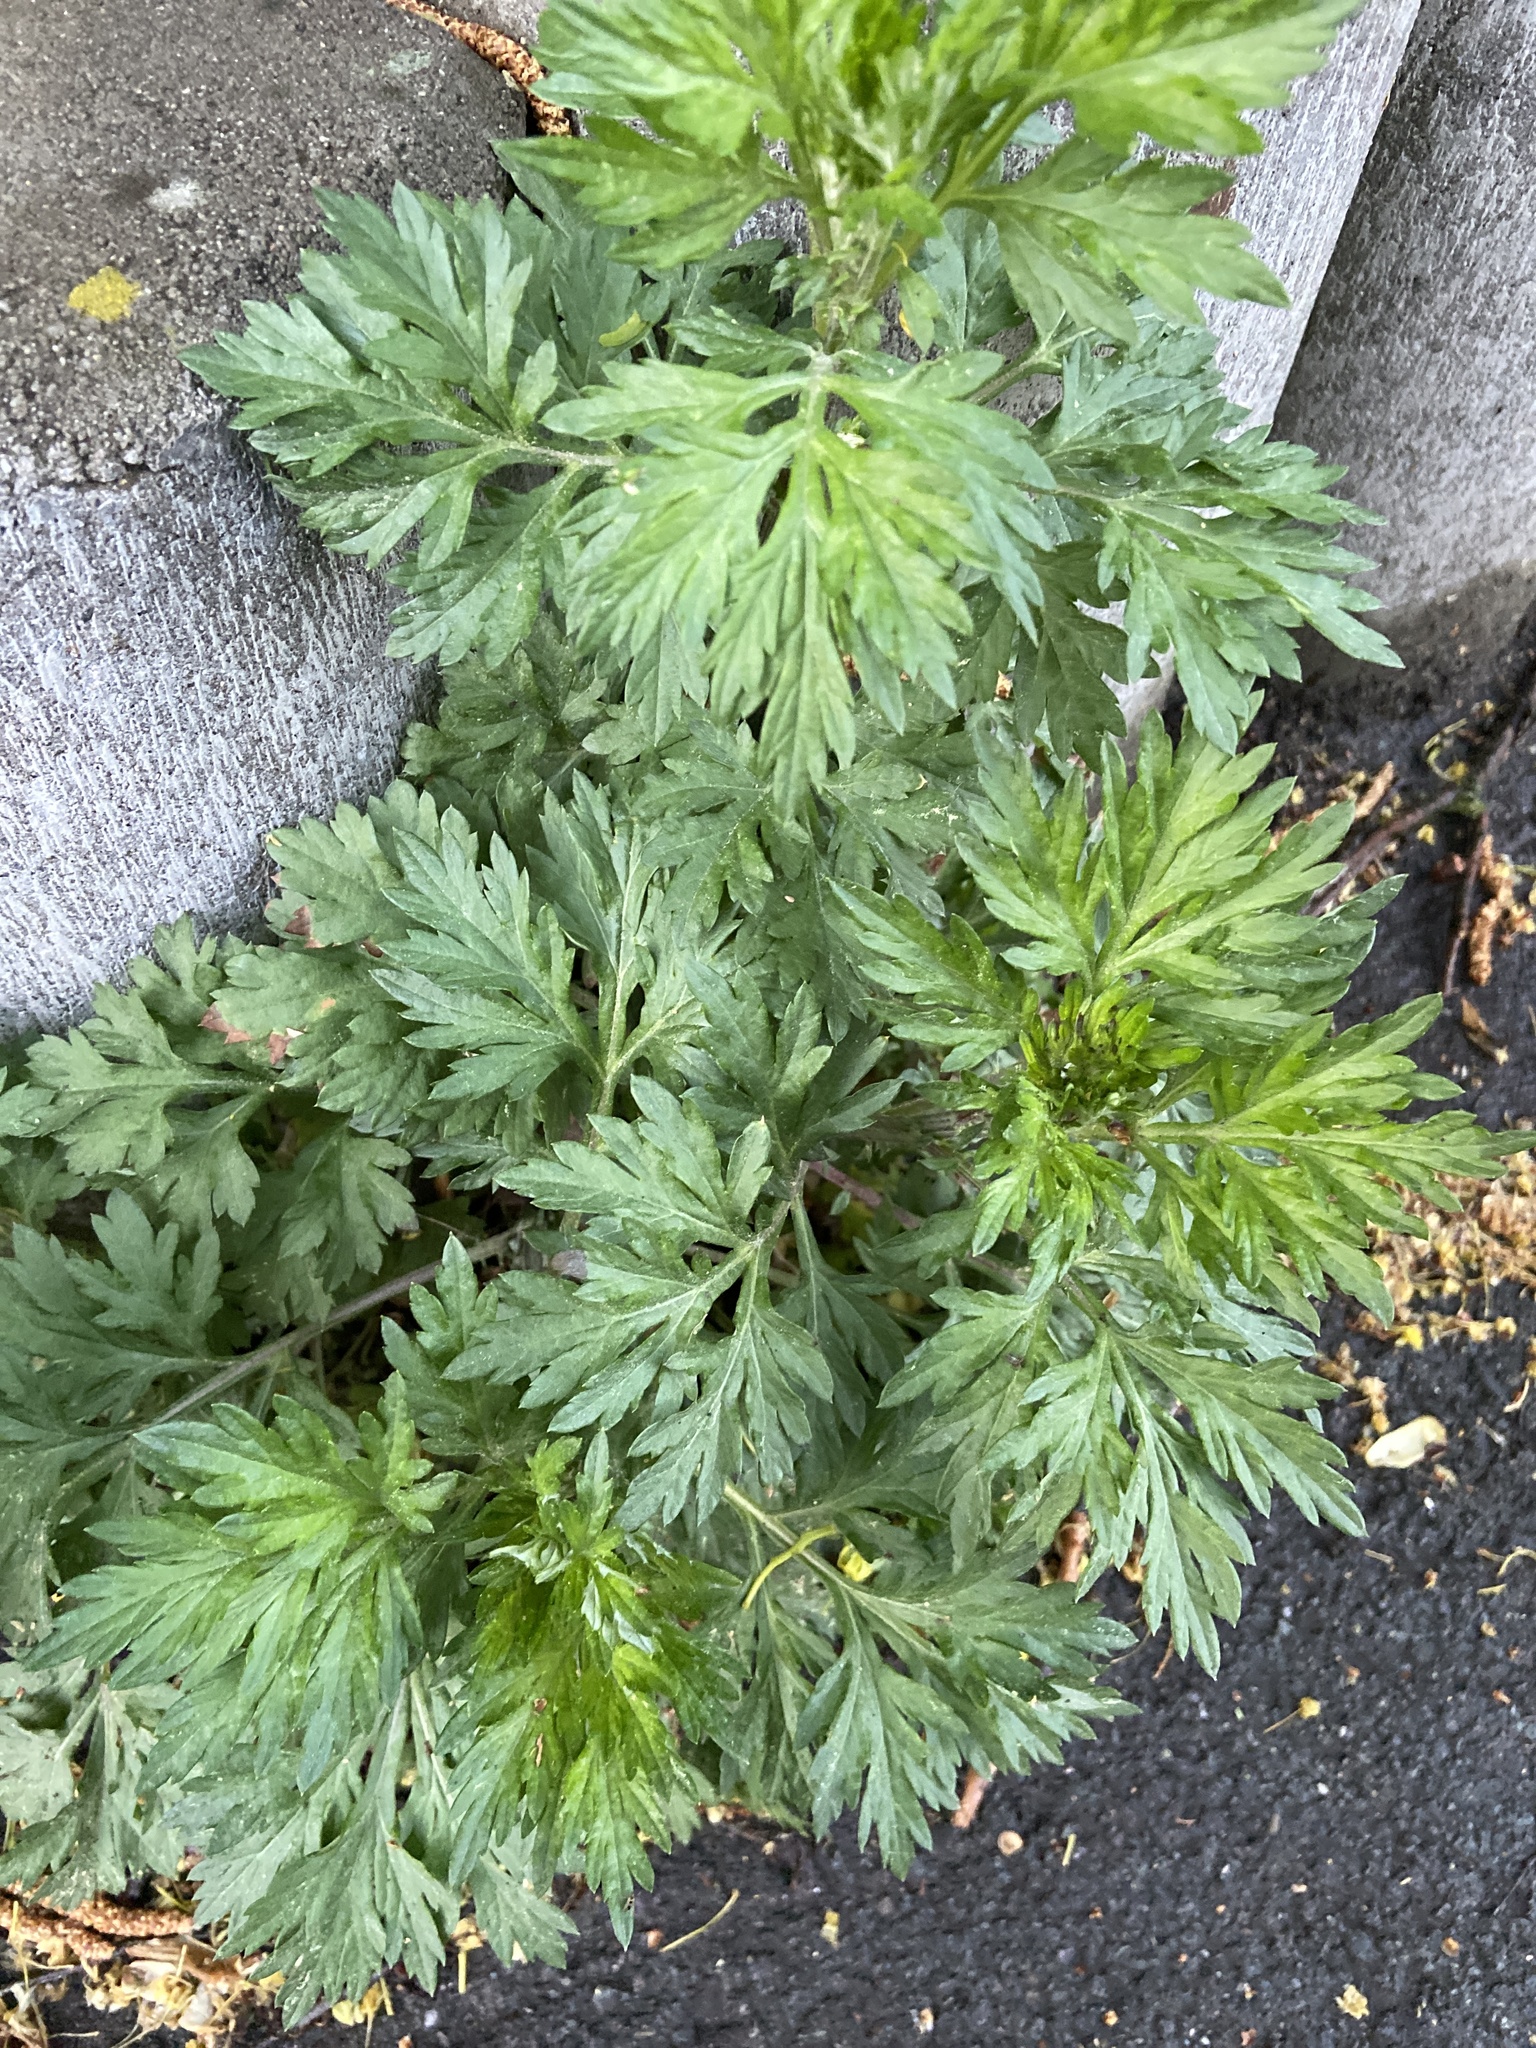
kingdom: Plantae
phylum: Tracheophyta
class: Magnoliopsida
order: Asterales
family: Asteraceae
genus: Artemisia
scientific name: Artemisia vulgaris
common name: Mugwort
